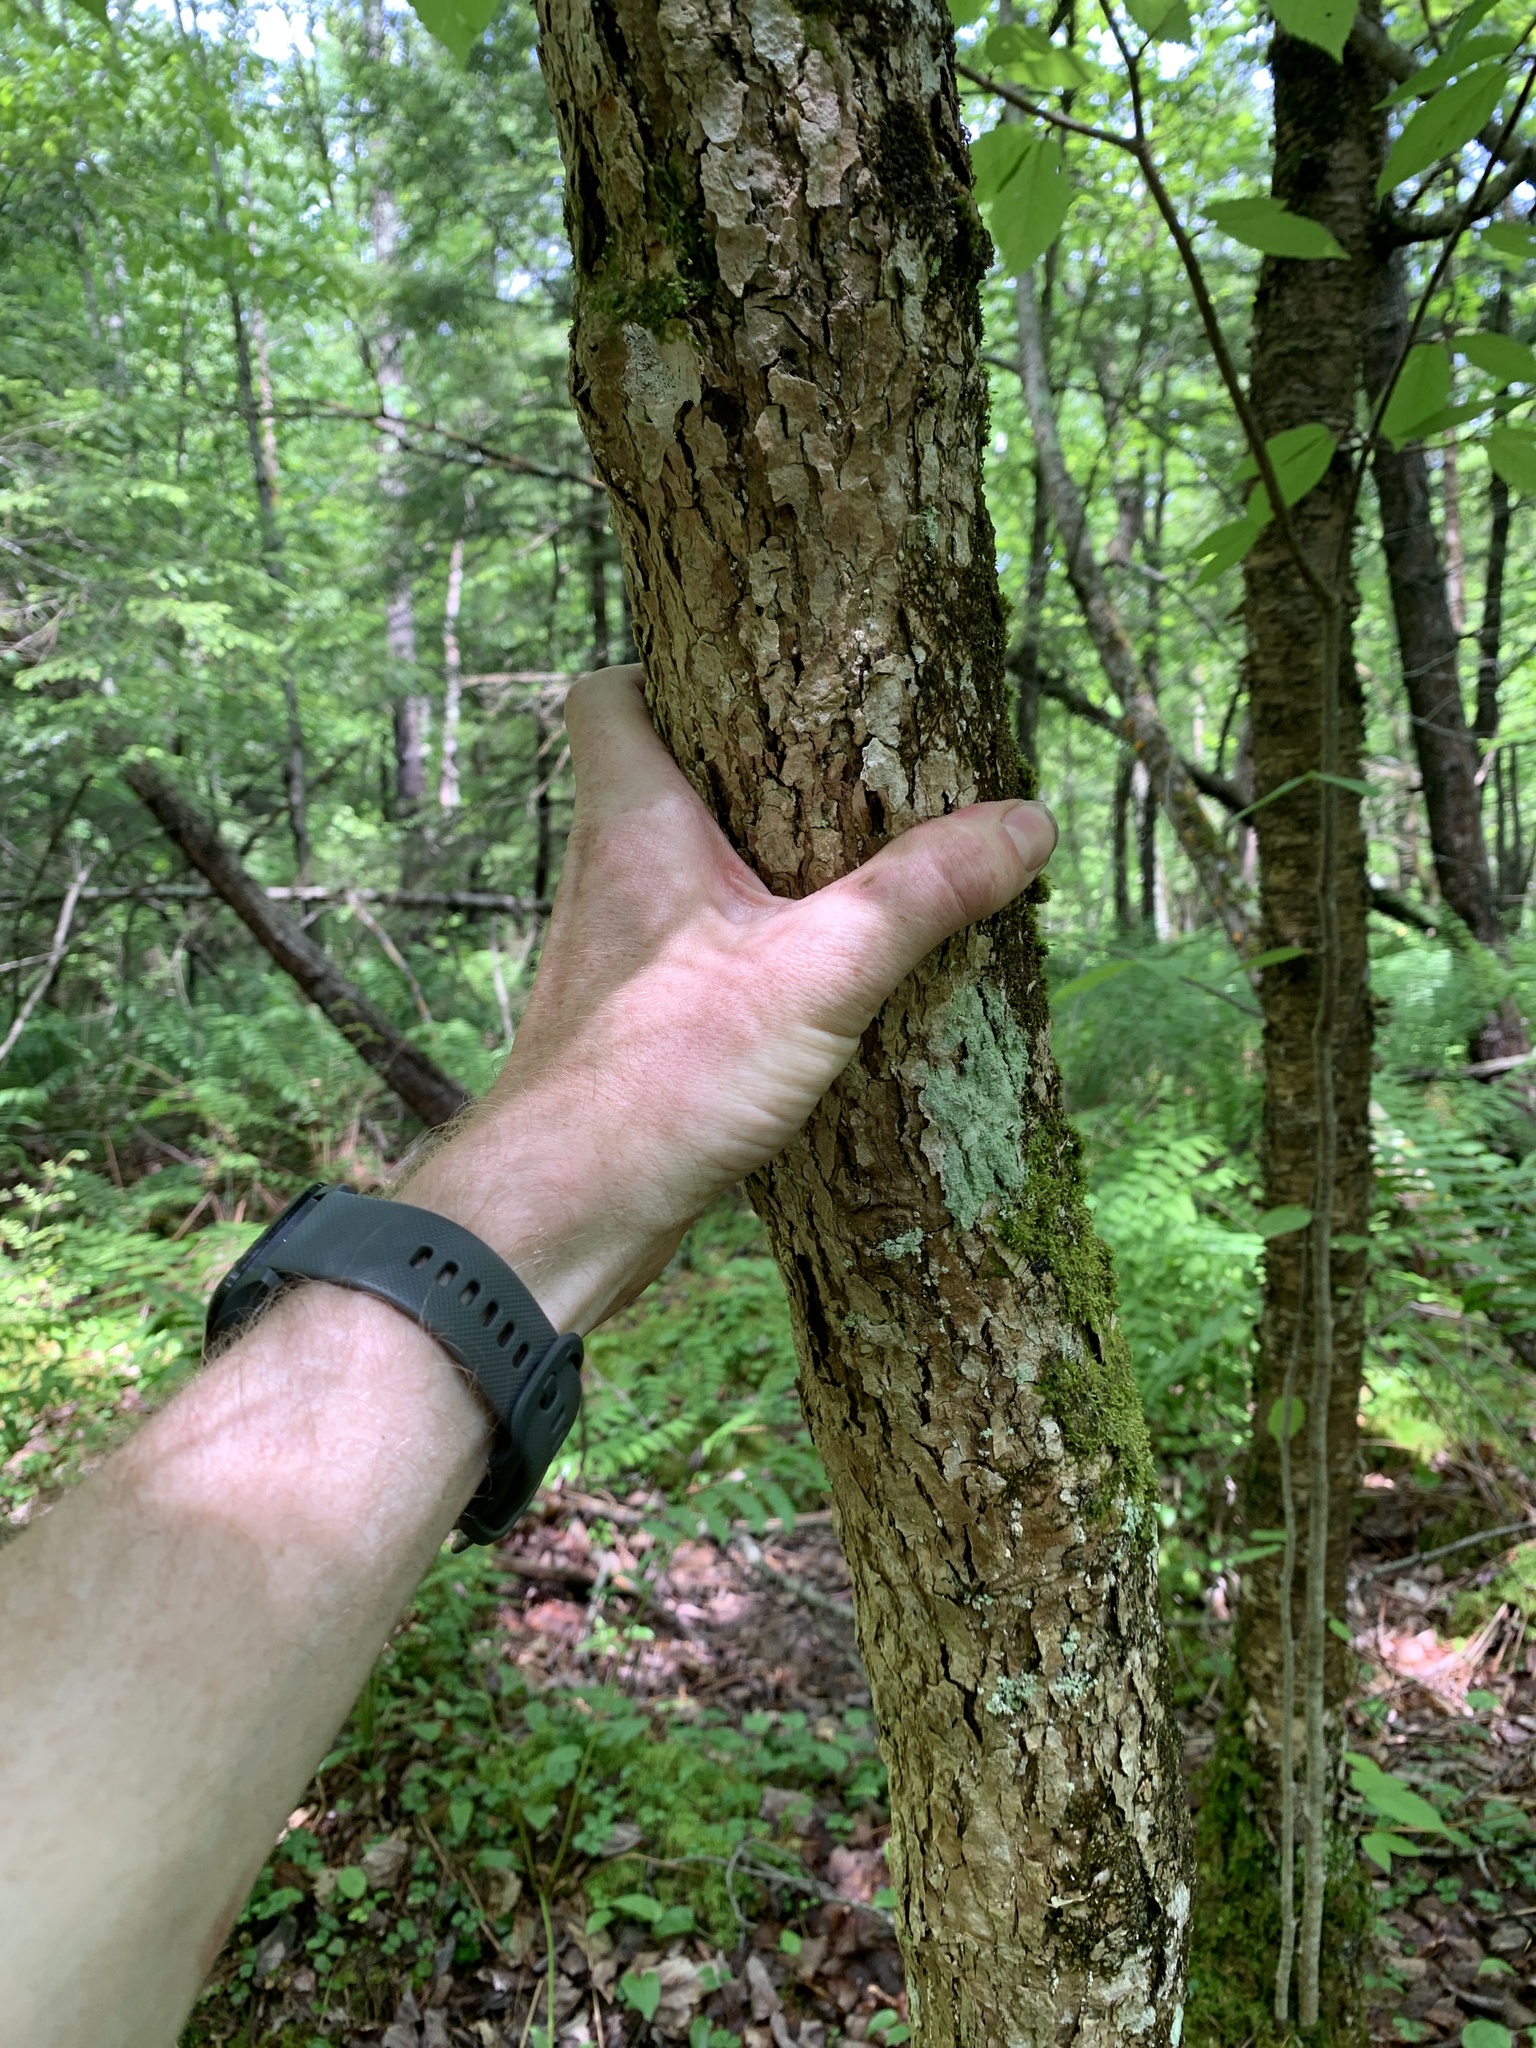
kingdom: Plantae
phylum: Tracheophyta
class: Magnoliopsida
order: Lamiales
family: Oleaceae
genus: Fraxinus
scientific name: Fraxinus nigra
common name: Black ash
